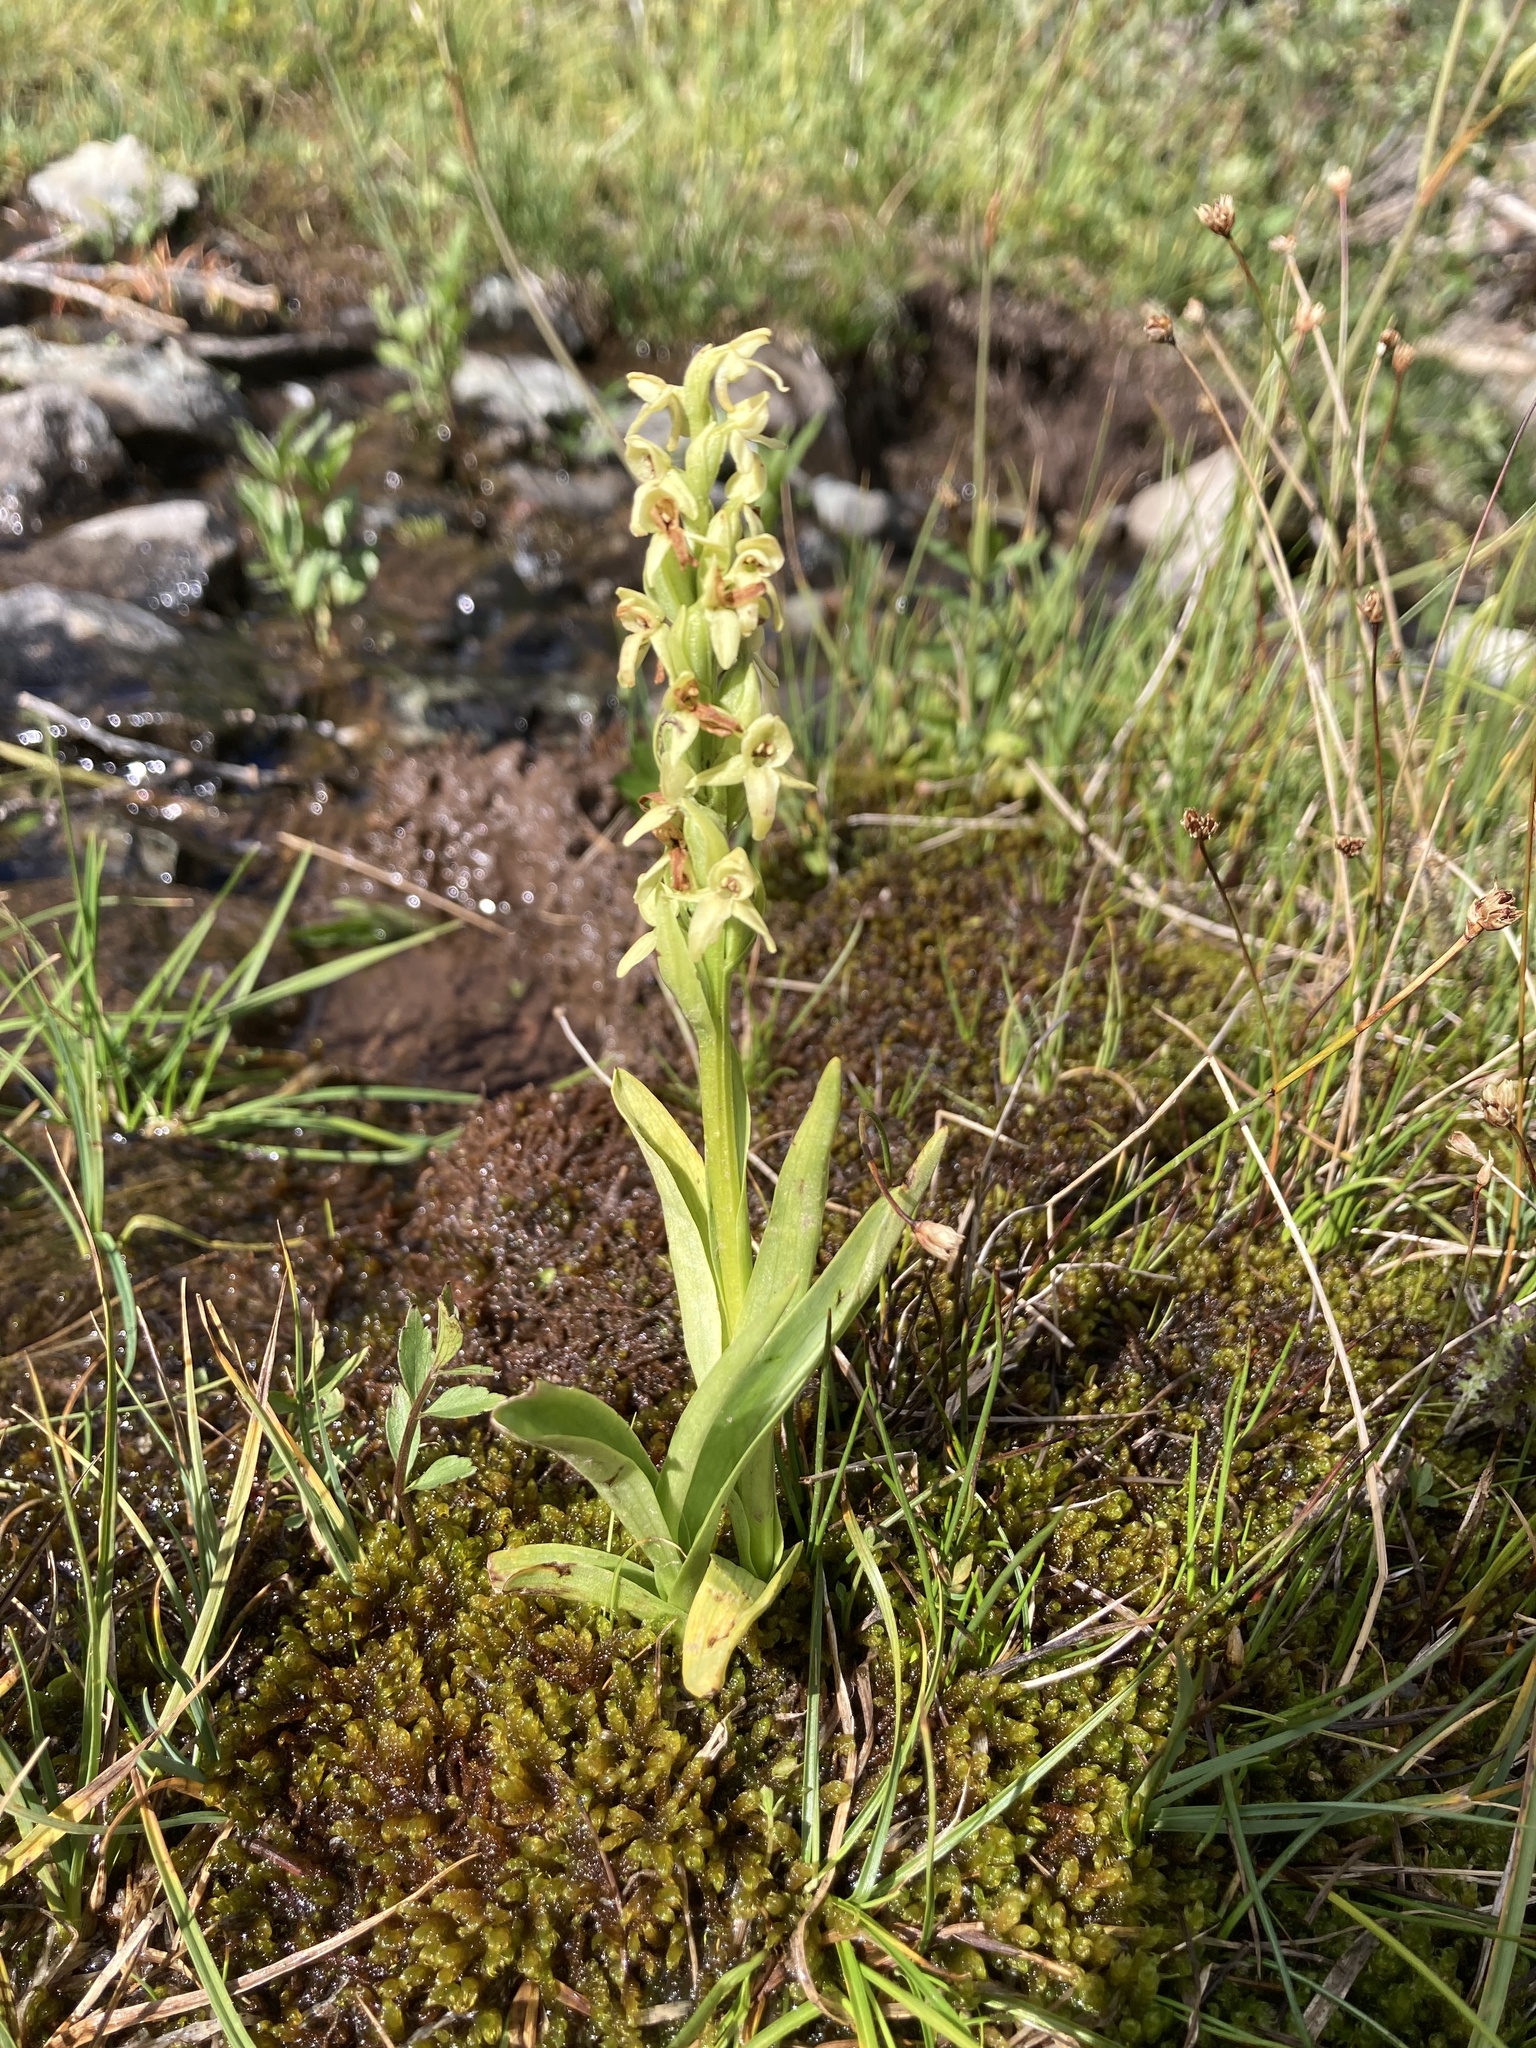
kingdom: Plantae
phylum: Tracheophyta
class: Liliopsida
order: Asparagales
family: Orchidaceae
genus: Platanthera
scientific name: Platanthera huronensis
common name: Fragrant green orchid
